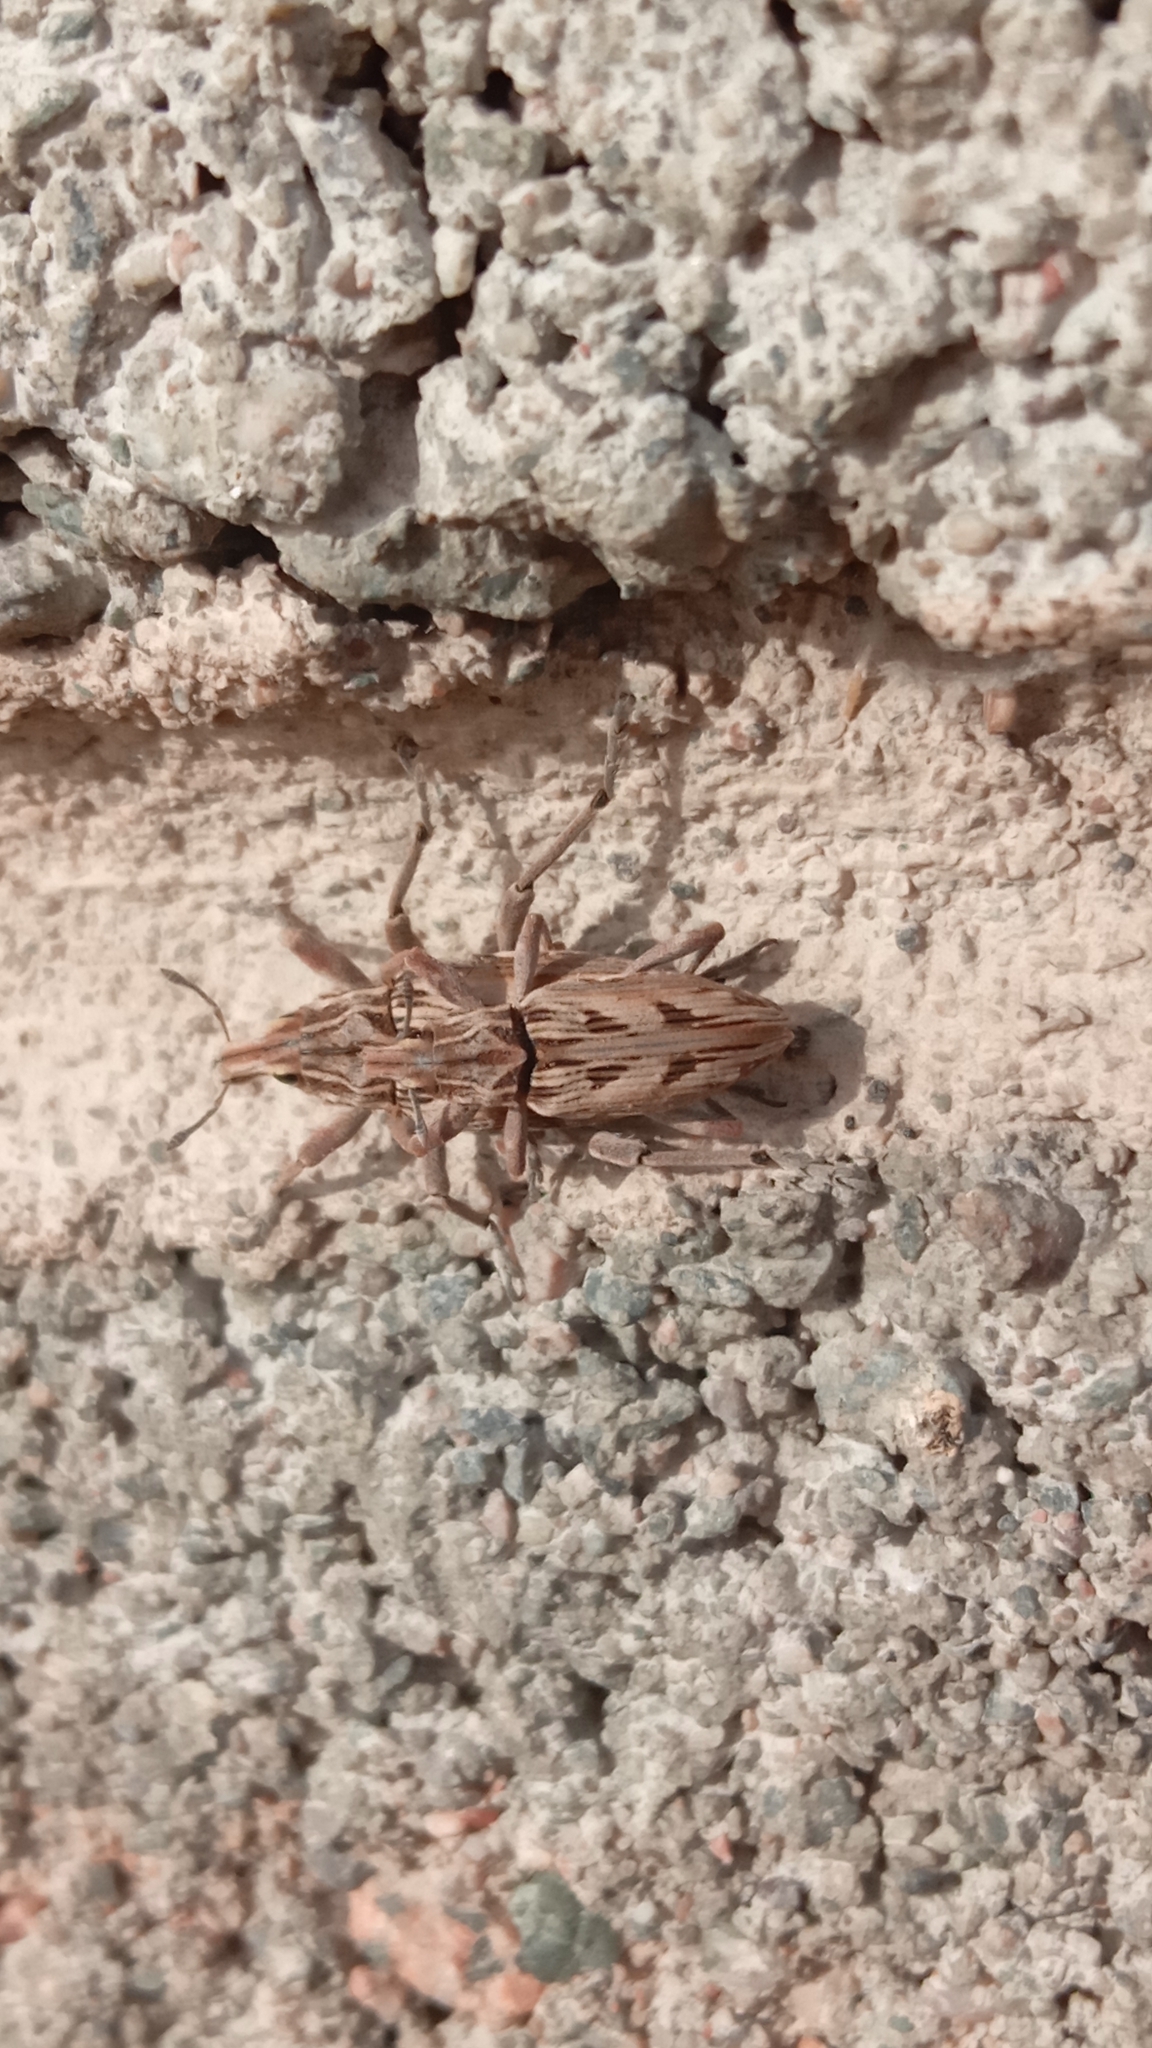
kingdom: Animalia
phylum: Arthropoda
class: Insecta
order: Coleoptera
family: Curculionidae
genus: Coniocleonus
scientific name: Coniocleonus excoriatus
